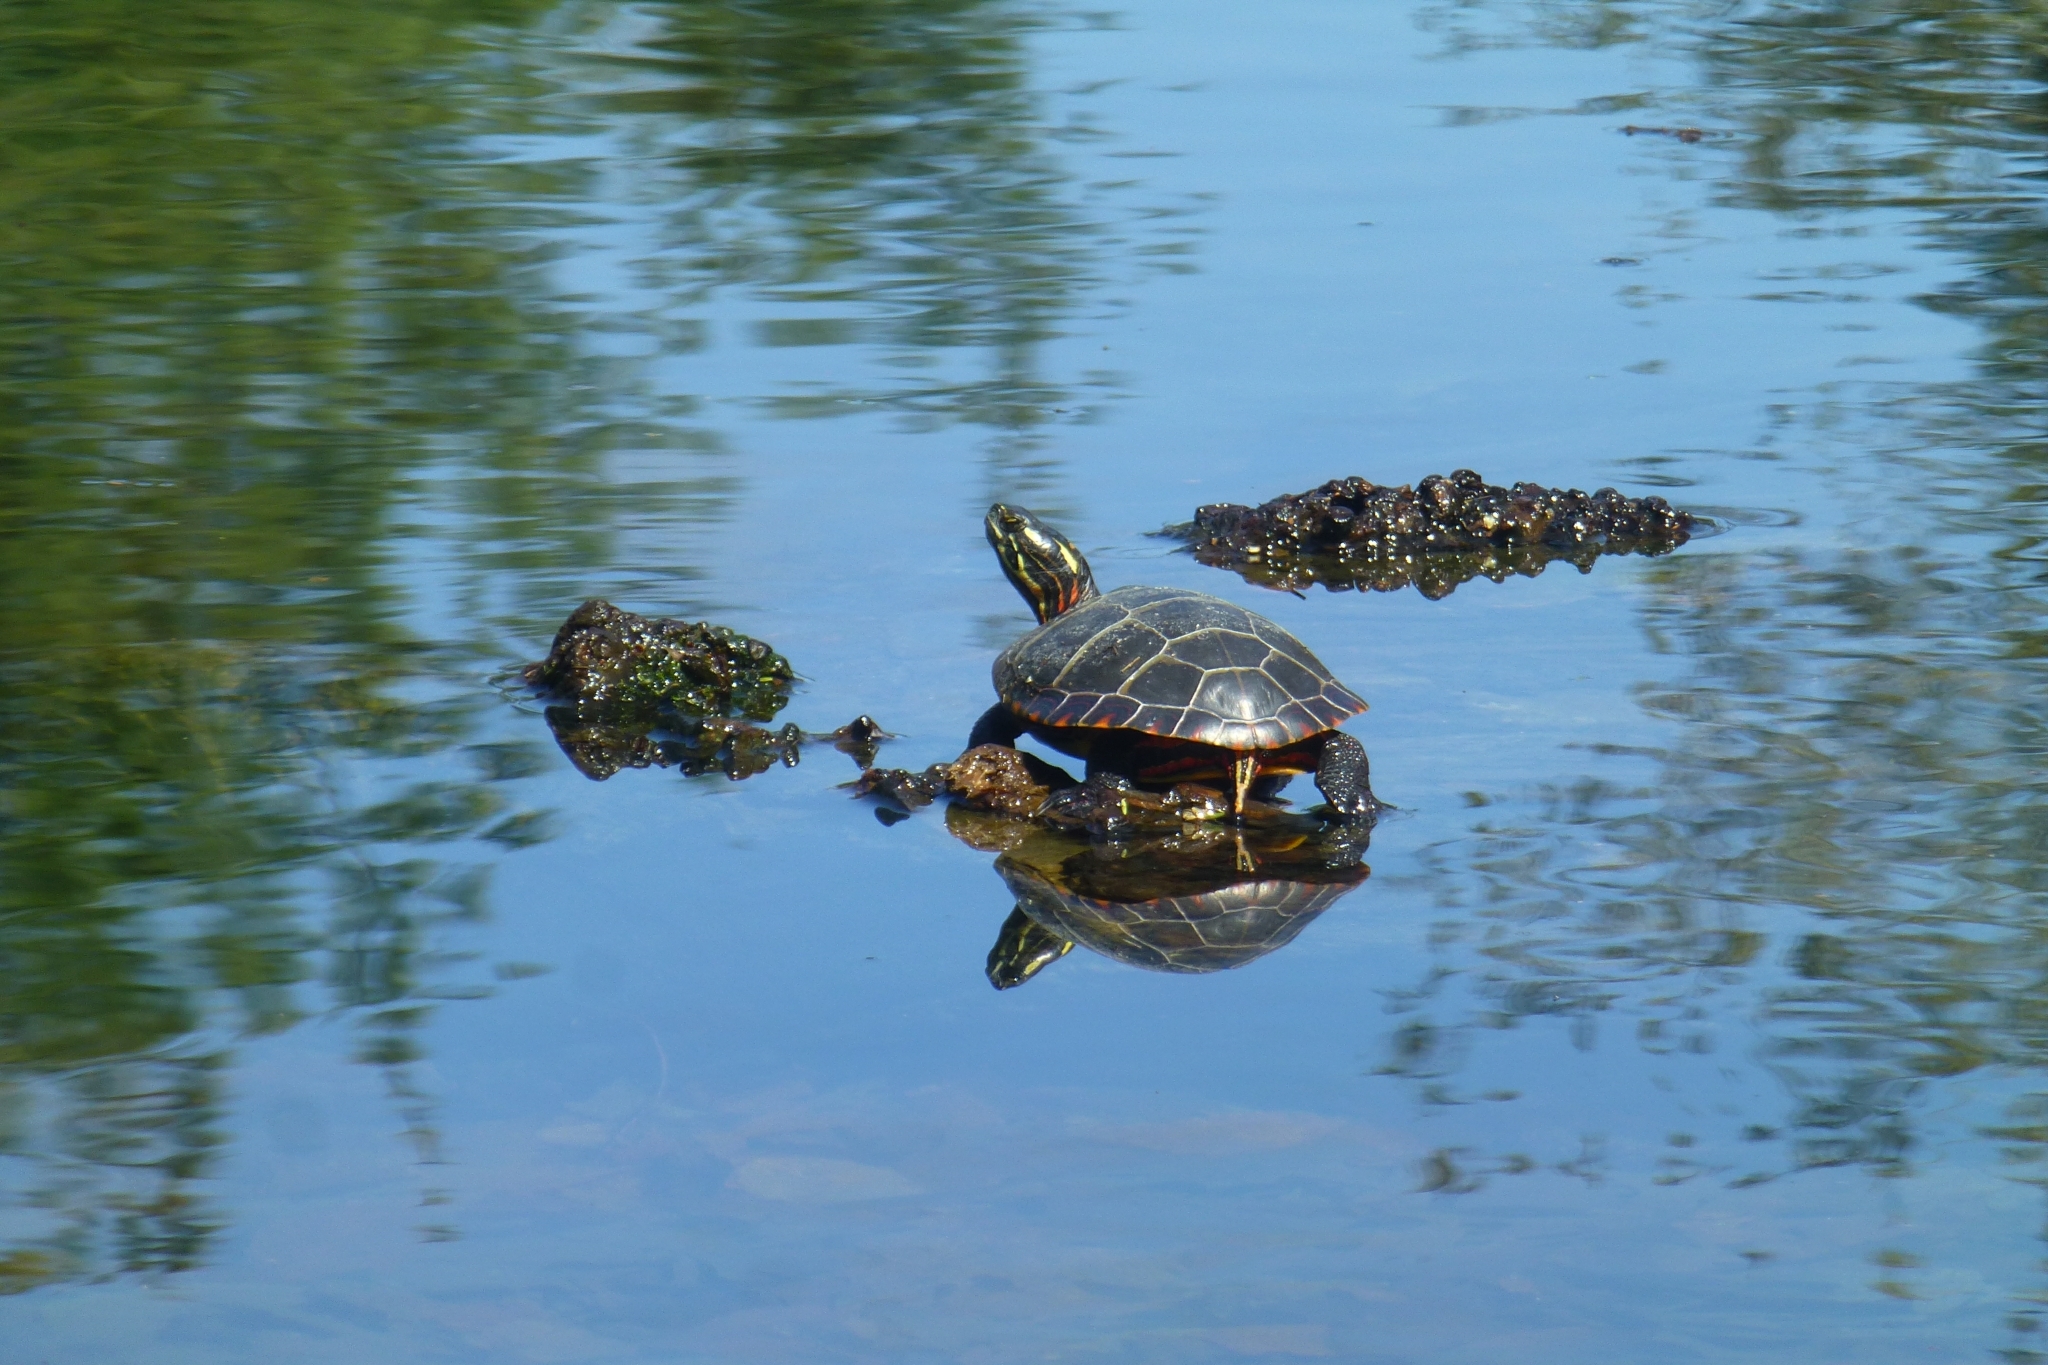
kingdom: Animalia
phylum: Chordata
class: Testudines
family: Emydidae
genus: Chrysemys
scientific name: Chrysemys picta
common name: Painted turtle
